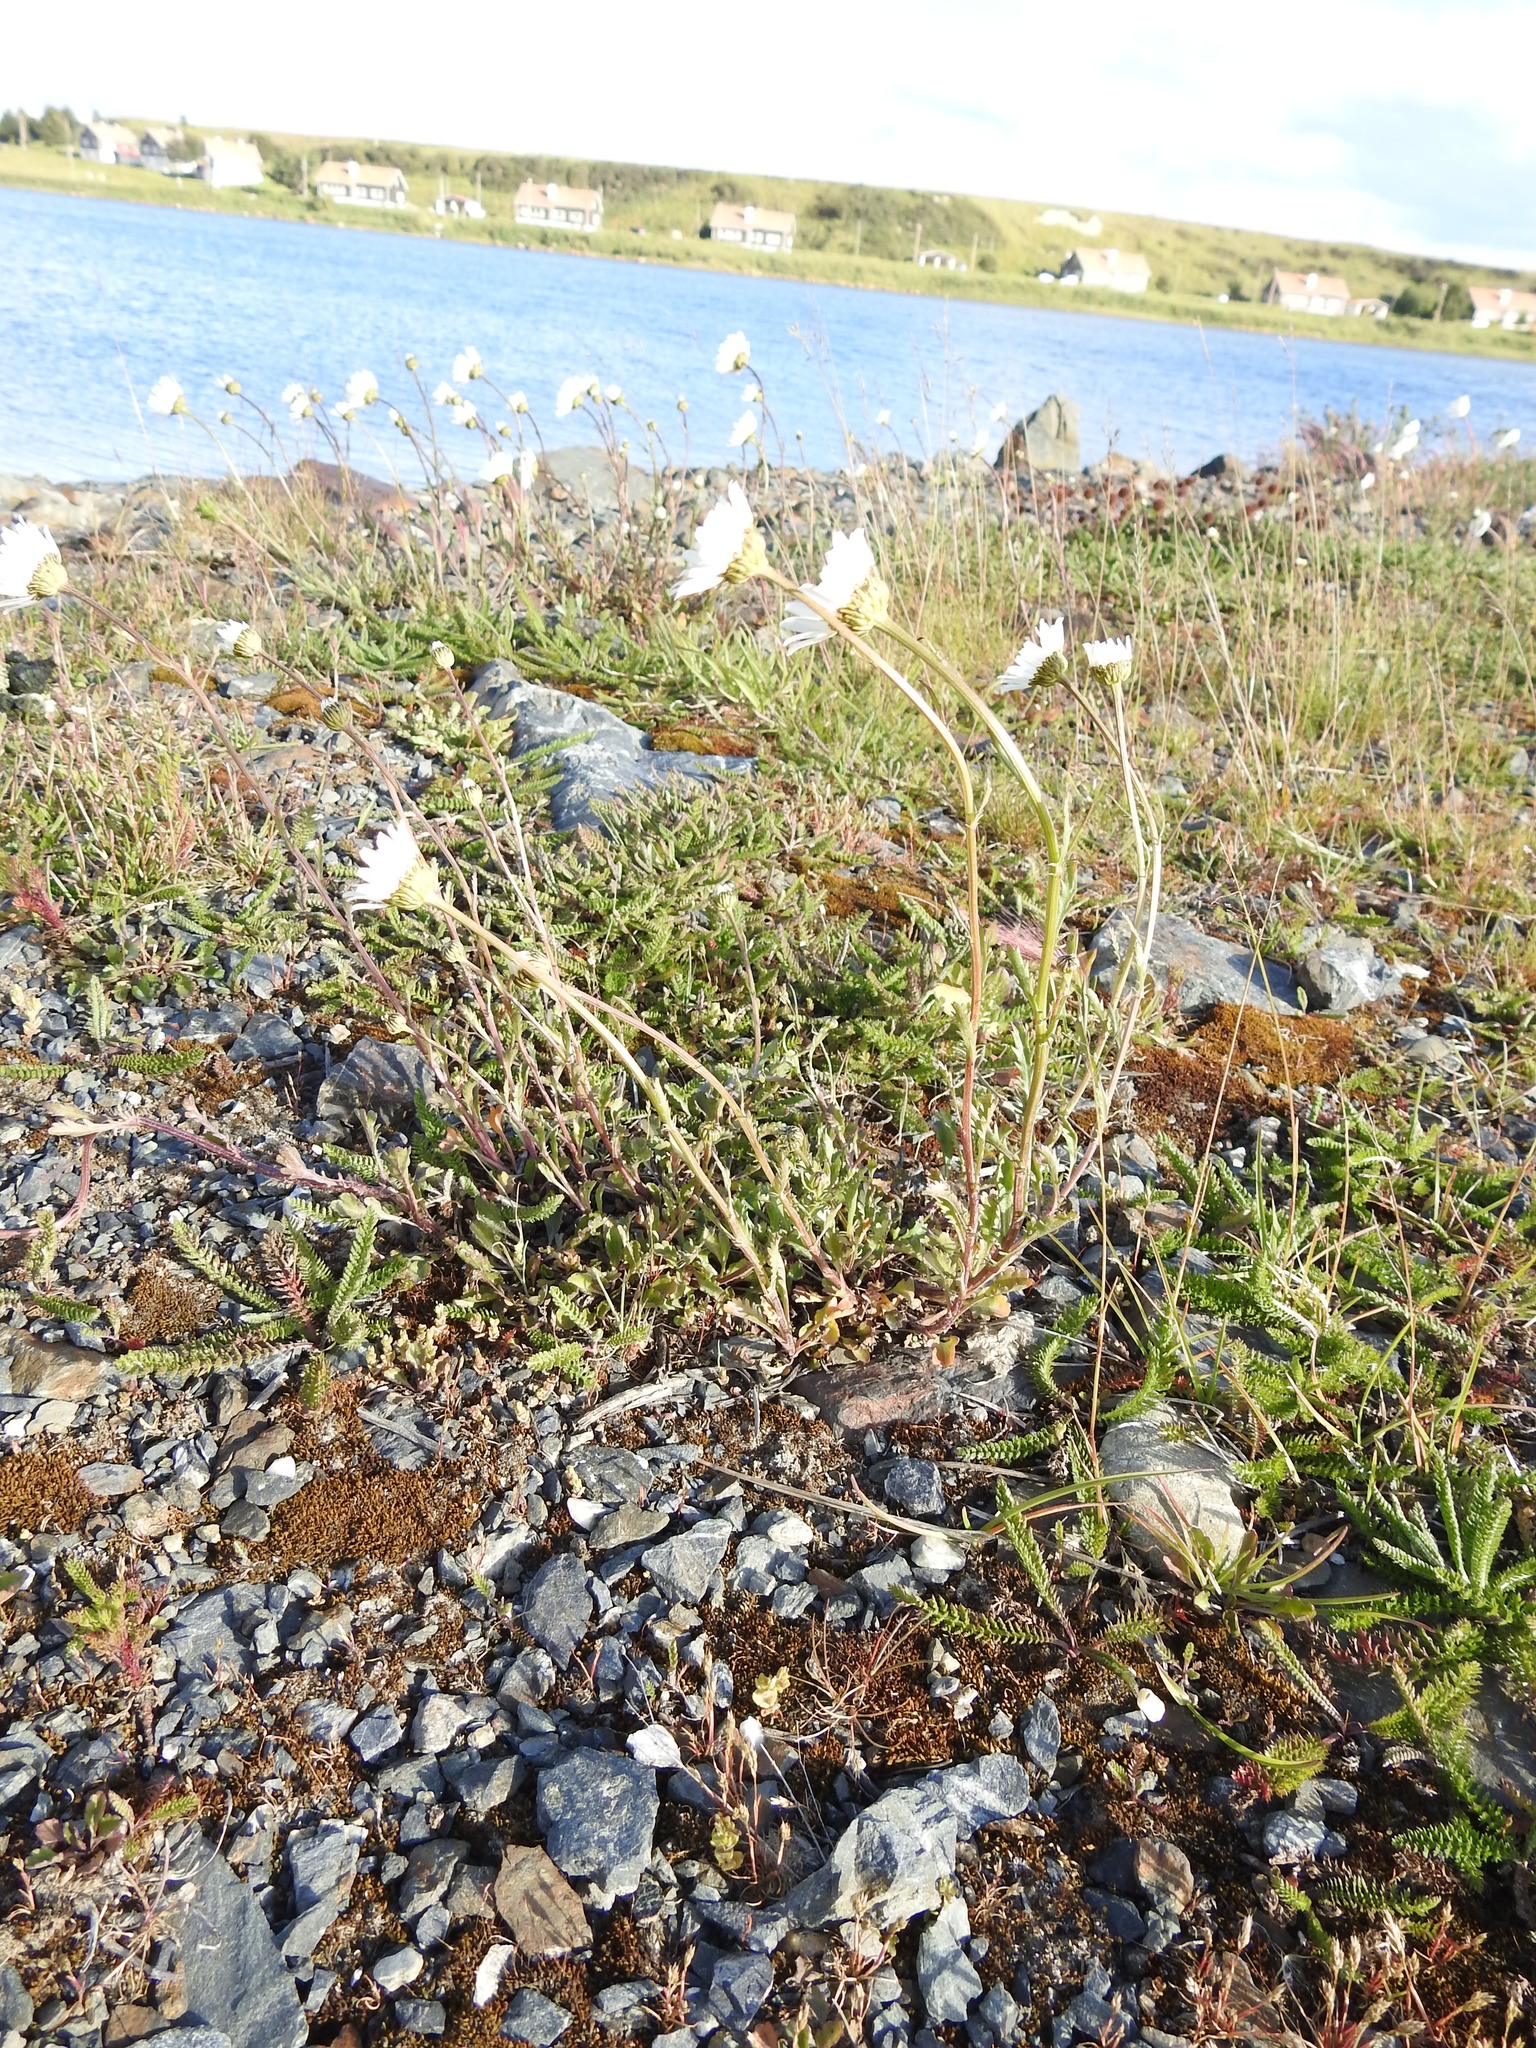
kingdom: Plantae
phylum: Tracheophyta
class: Magnoliopsida
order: Asterales
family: Asteraceae
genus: Leucanthemum
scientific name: Leucanthemum vulgare
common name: Oxeye daisy
